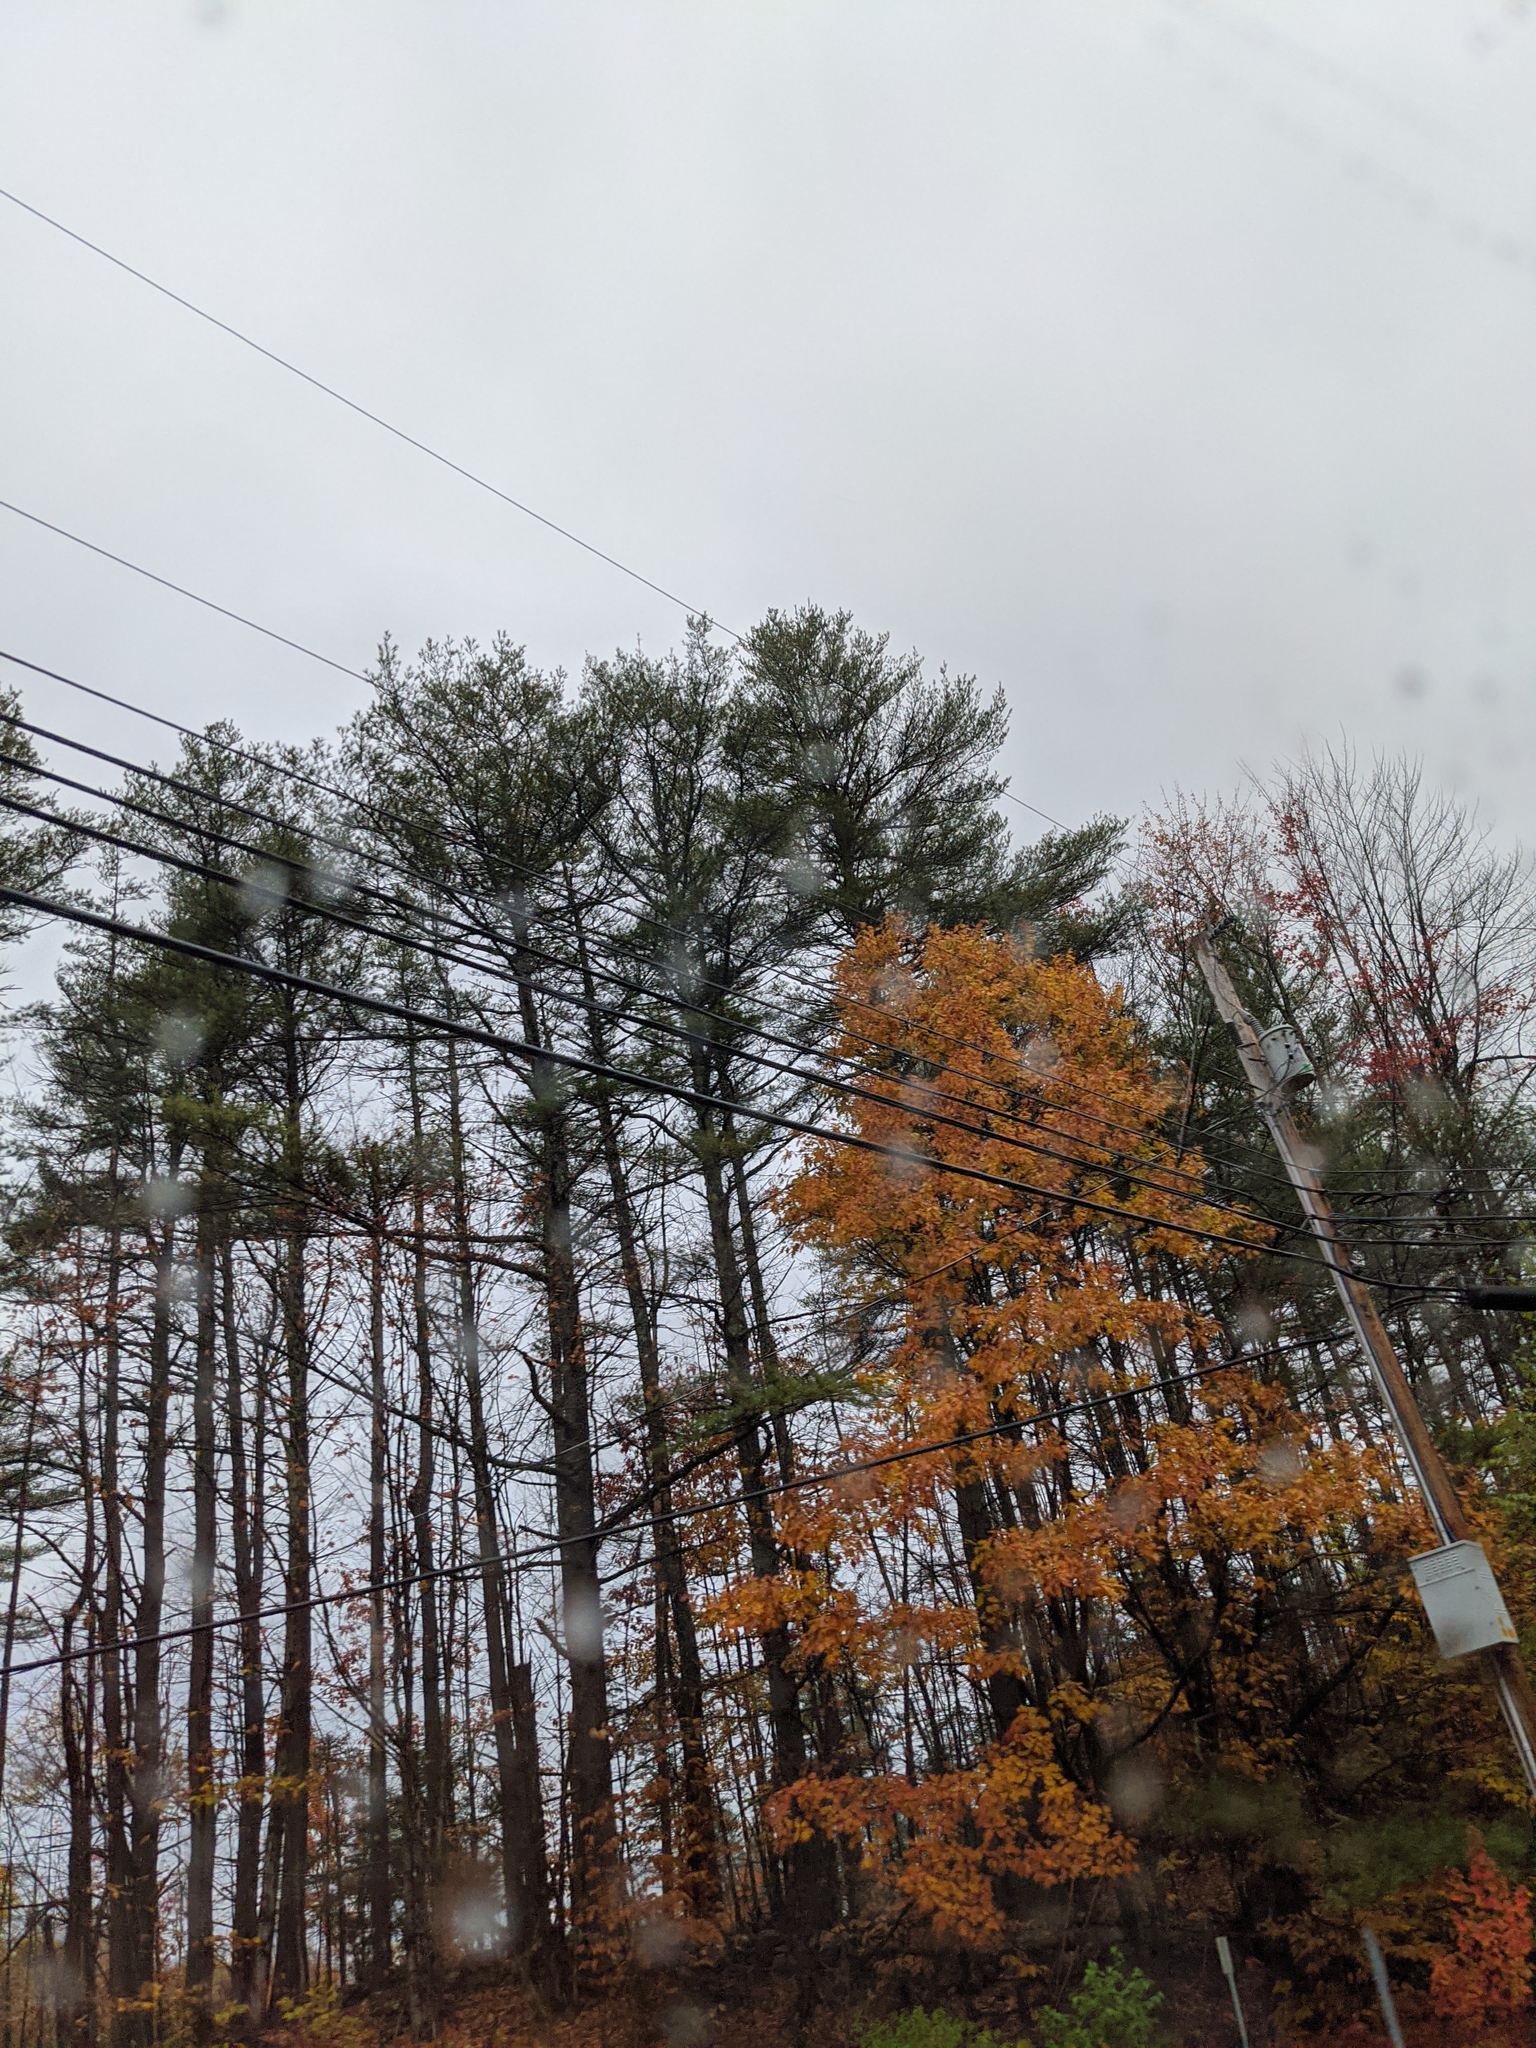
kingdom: Plantae
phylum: Tracheophyta
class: Pinopsida
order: Pinales
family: Pinaceae
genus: Pinus
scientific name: Pinus strobus
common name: Weymouth pine
